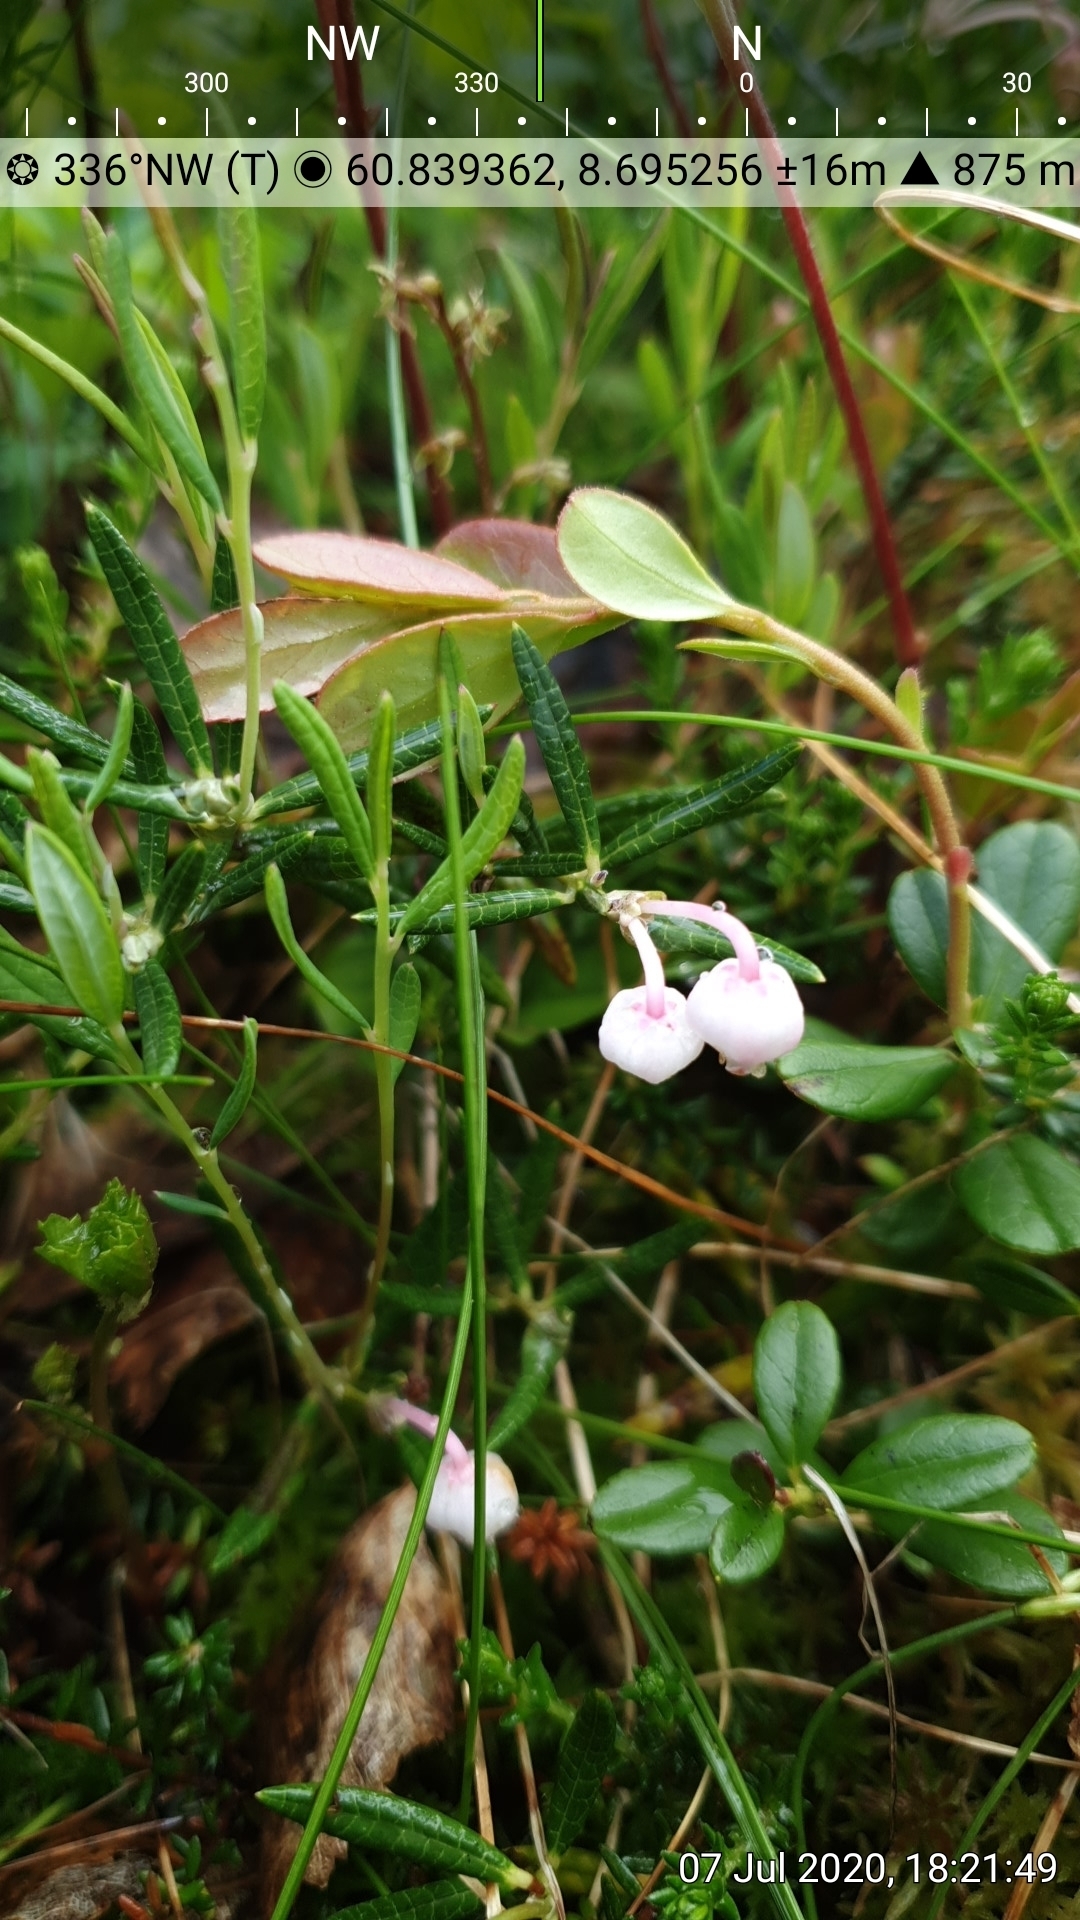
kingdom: Plantae
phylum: Tracheophyta
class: Magnoliopsida
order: Ericales
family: Ericaceae
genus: Andromeda
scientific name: Andromeda polifolia
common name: Bog-rosemary
